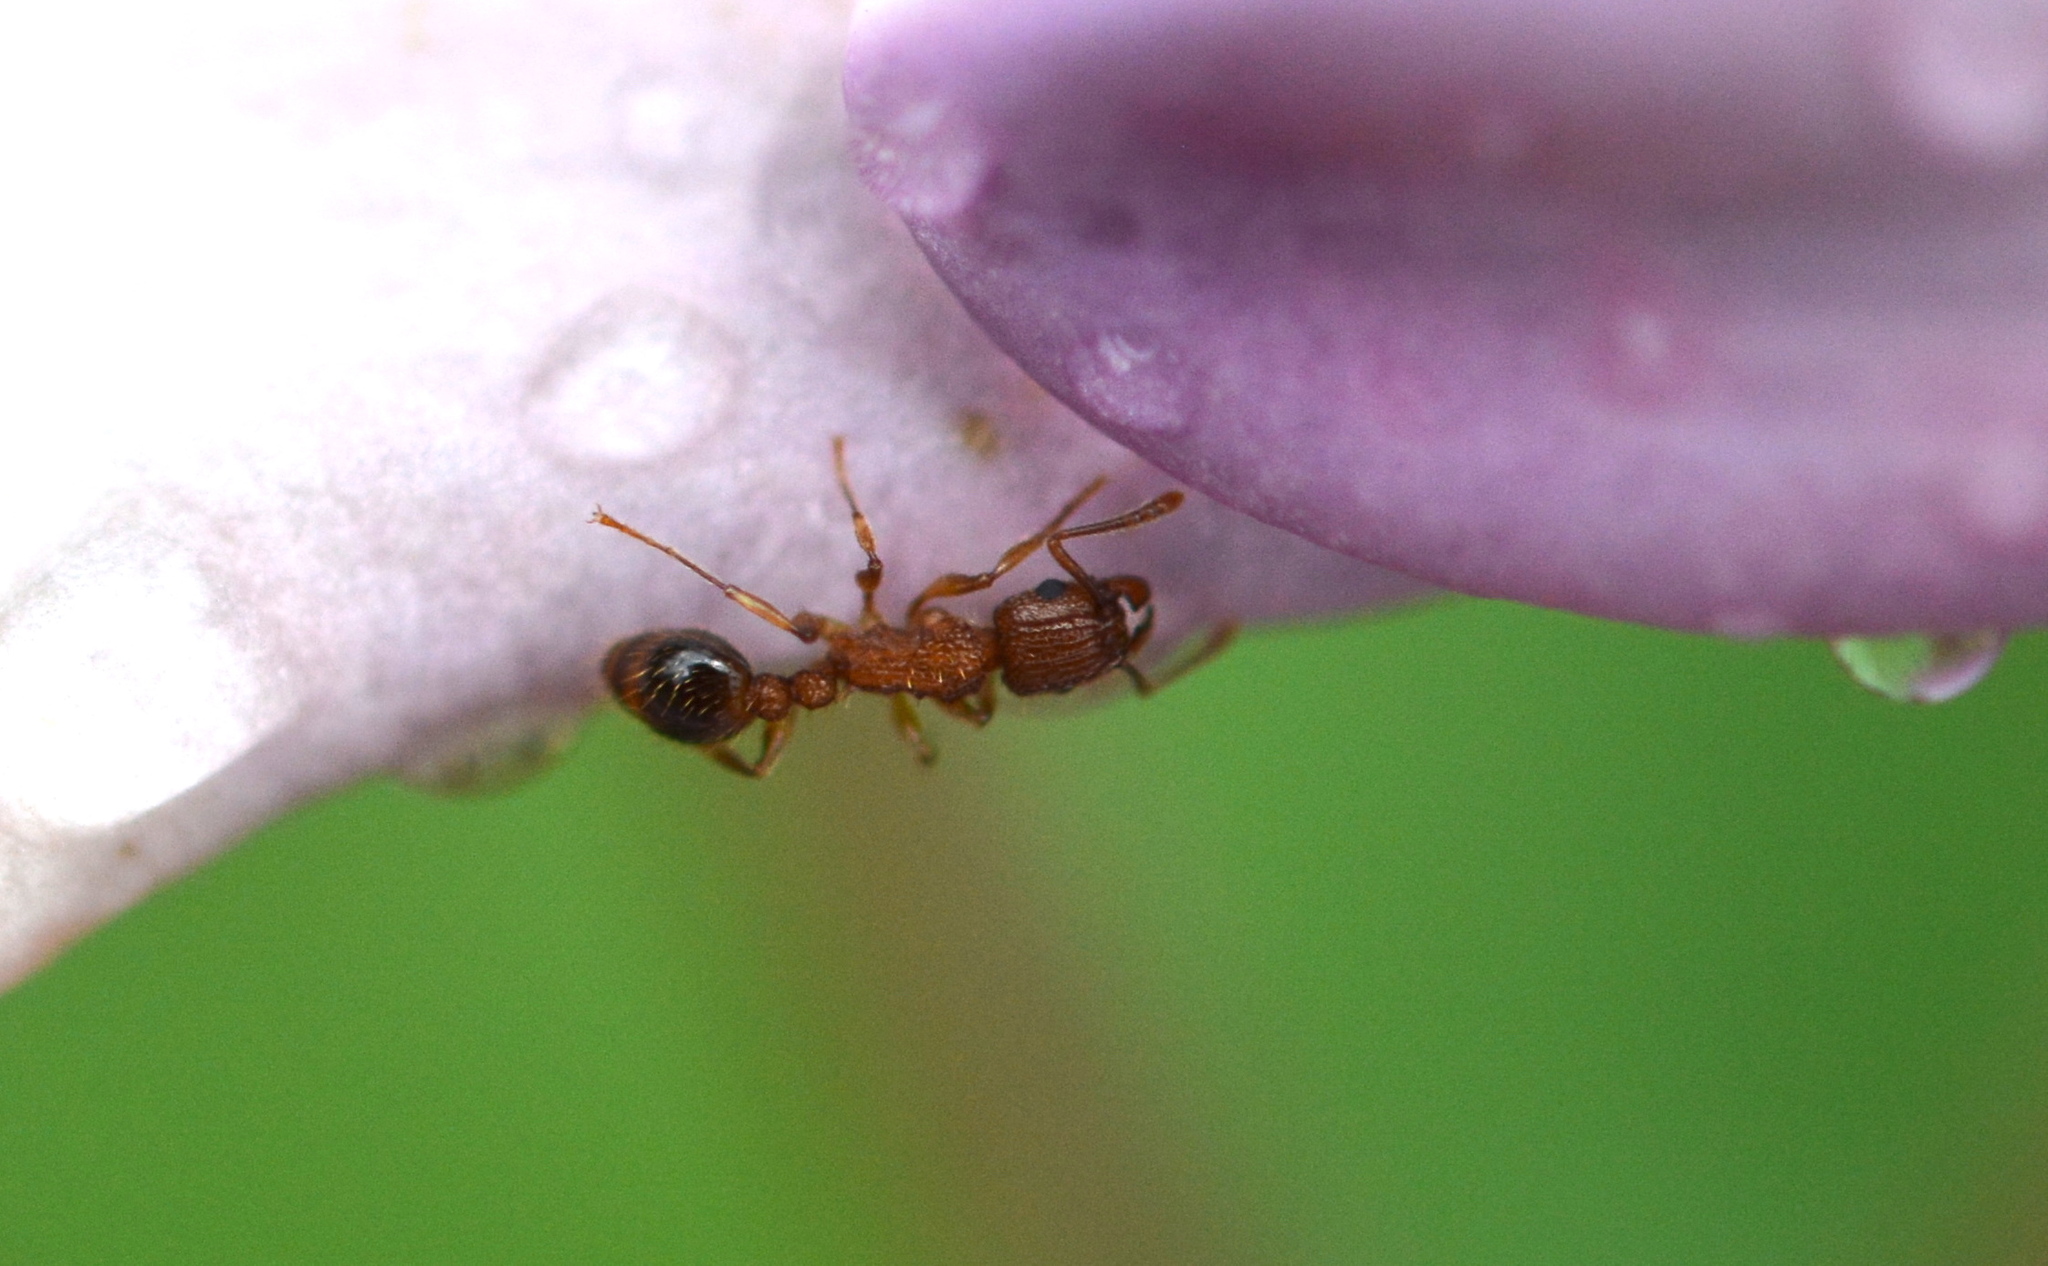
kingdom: Animalia
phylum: Arthropoda
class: Insecta
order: Hymenoptera
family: Formicidae
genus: Tetramorium
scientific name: Tetramorium bicarinatum
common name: Guinea ant
